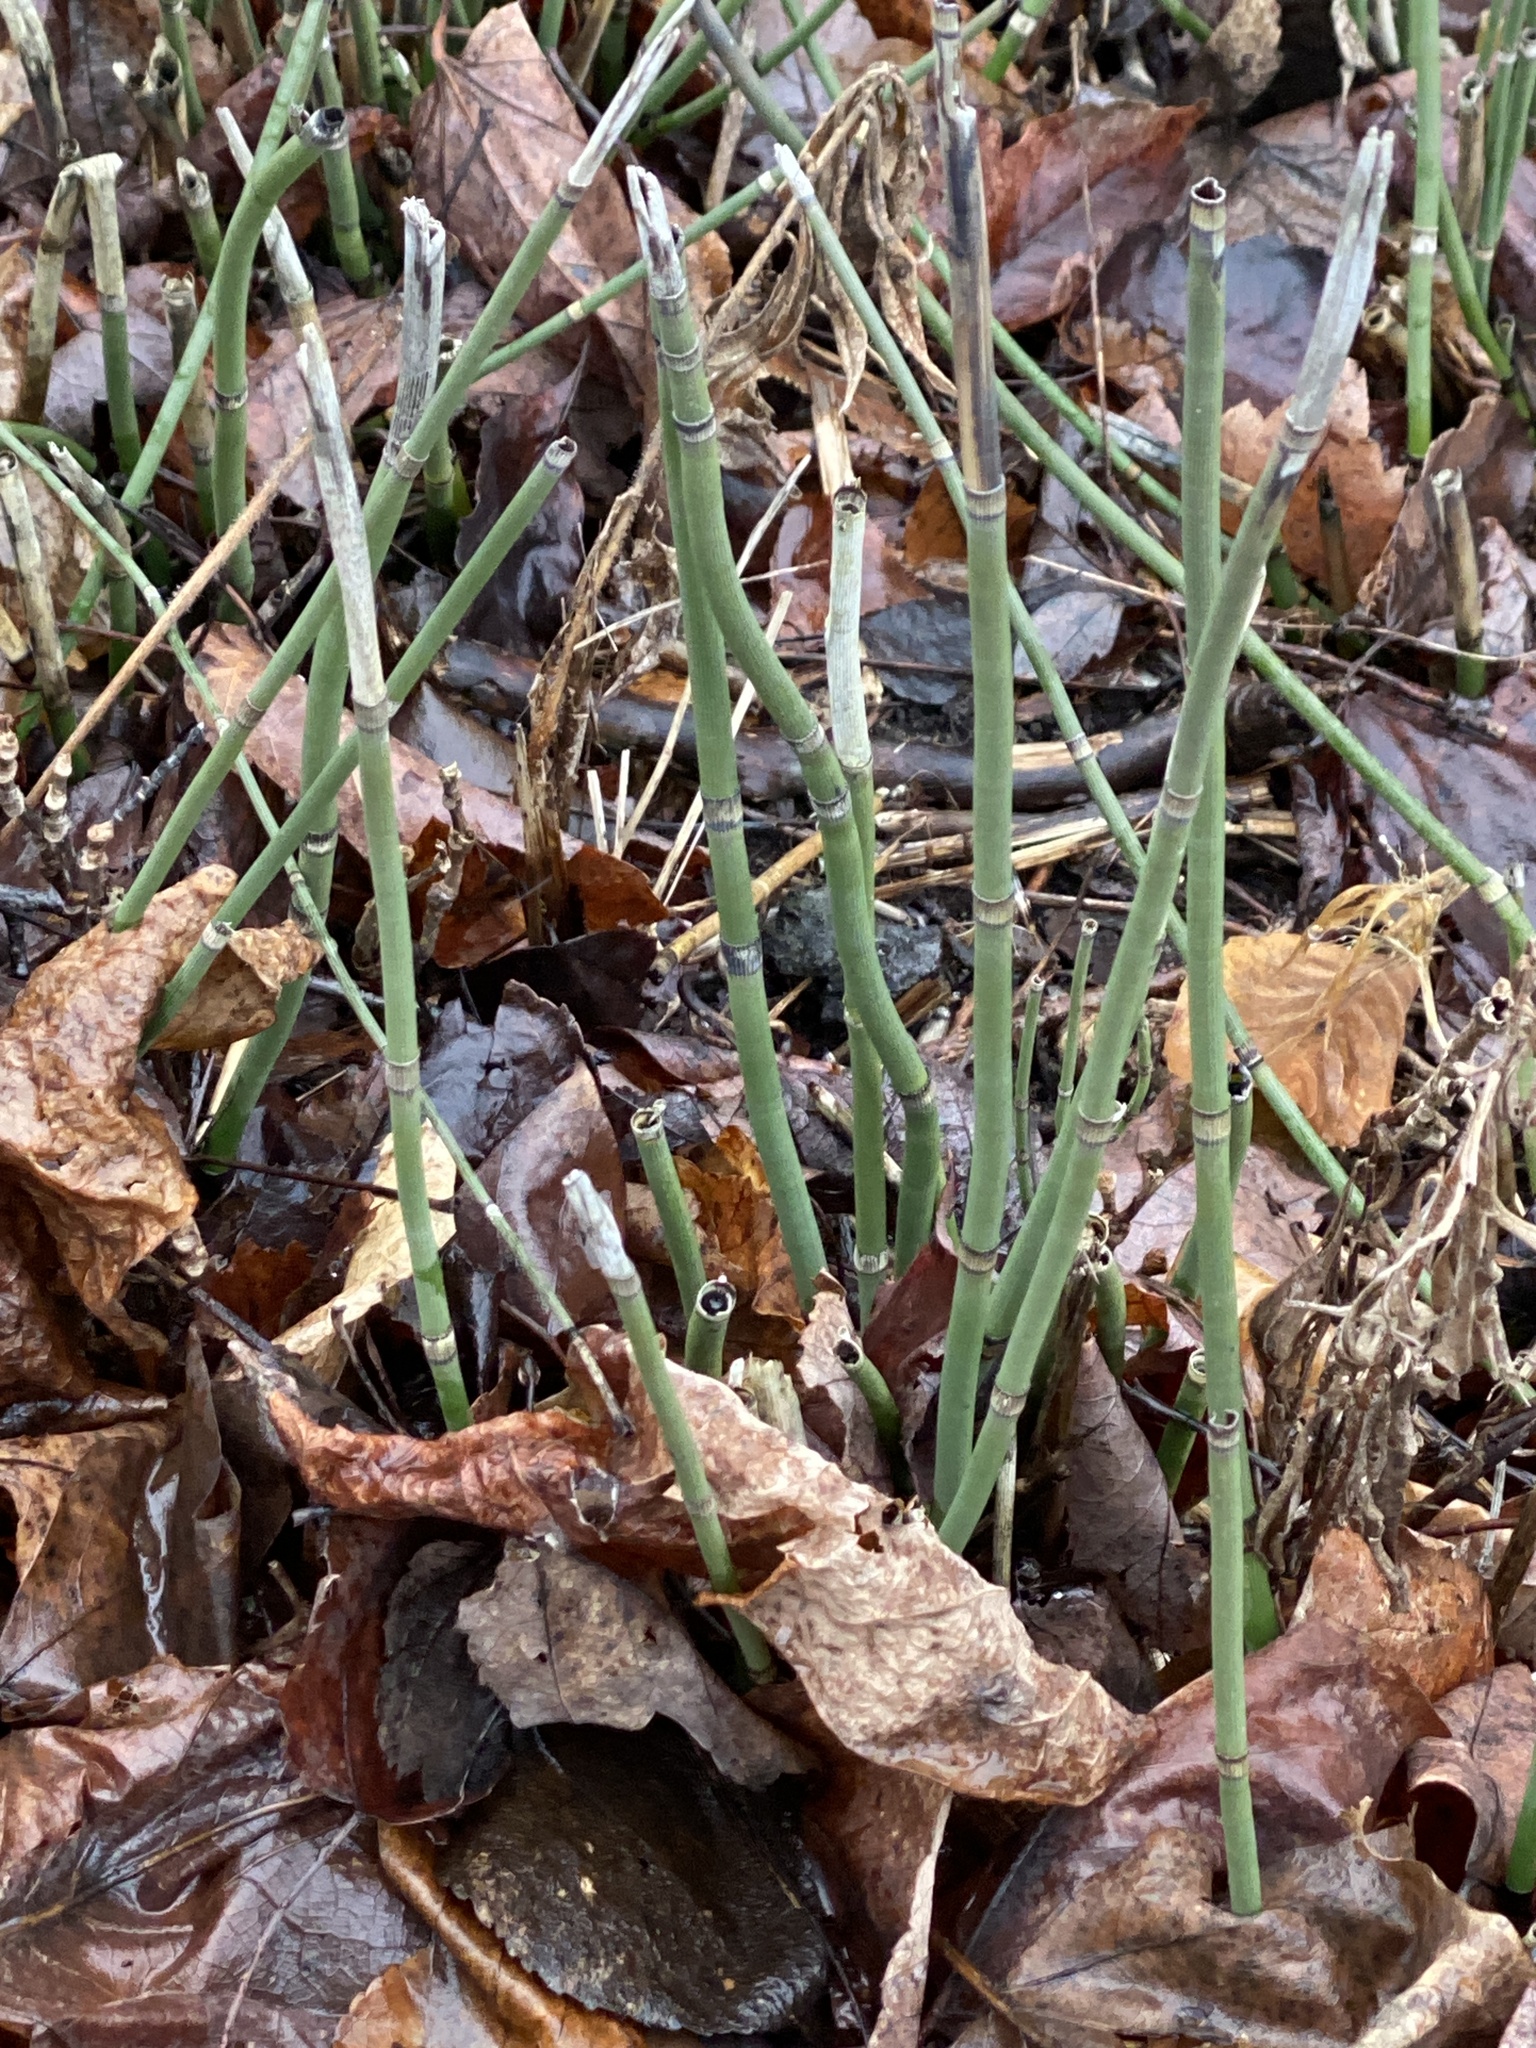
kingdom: Plantae
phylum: Tracheophyta
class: Polypodiopsida
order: Equisetales
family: Equisetaceae
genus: Equisetum
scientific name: Equisetum praealtum
